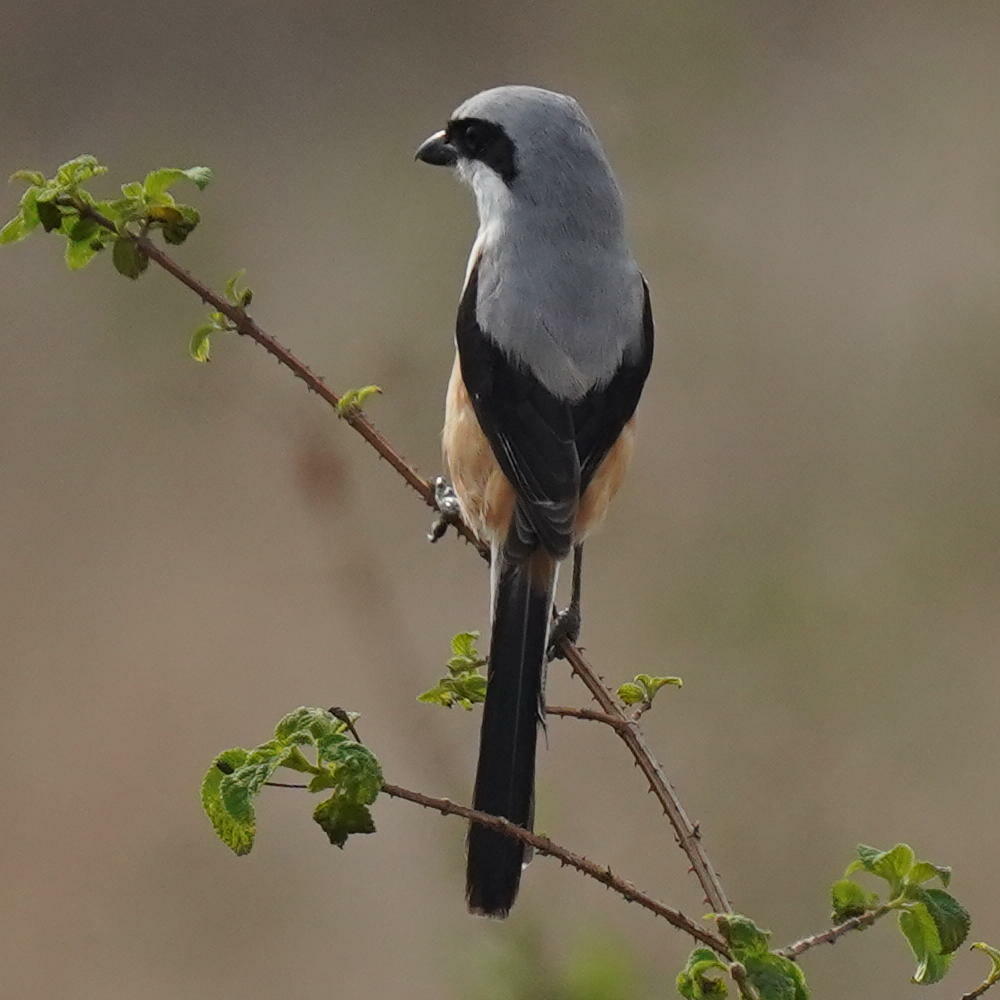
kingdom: Animalia
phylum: Chordata
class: Aves
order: Passeriformes
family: Laniidae
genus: Lanius
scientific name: Lanius schach
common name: Long-tailed shrike
